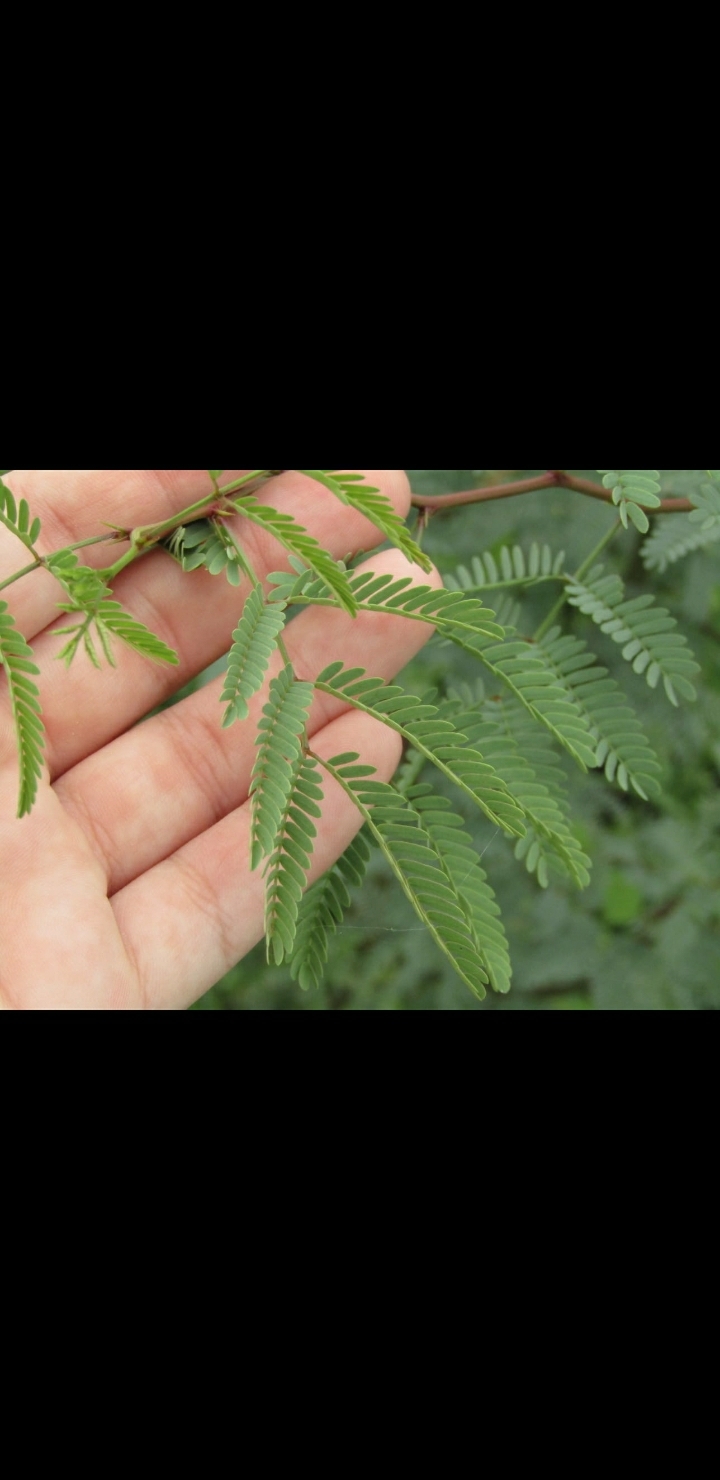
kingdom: Plantae
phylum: Tracheophyta
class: Magnoliopsida
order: Fabales
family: Fabaceae
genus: Prosopis
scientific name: Prosopis
